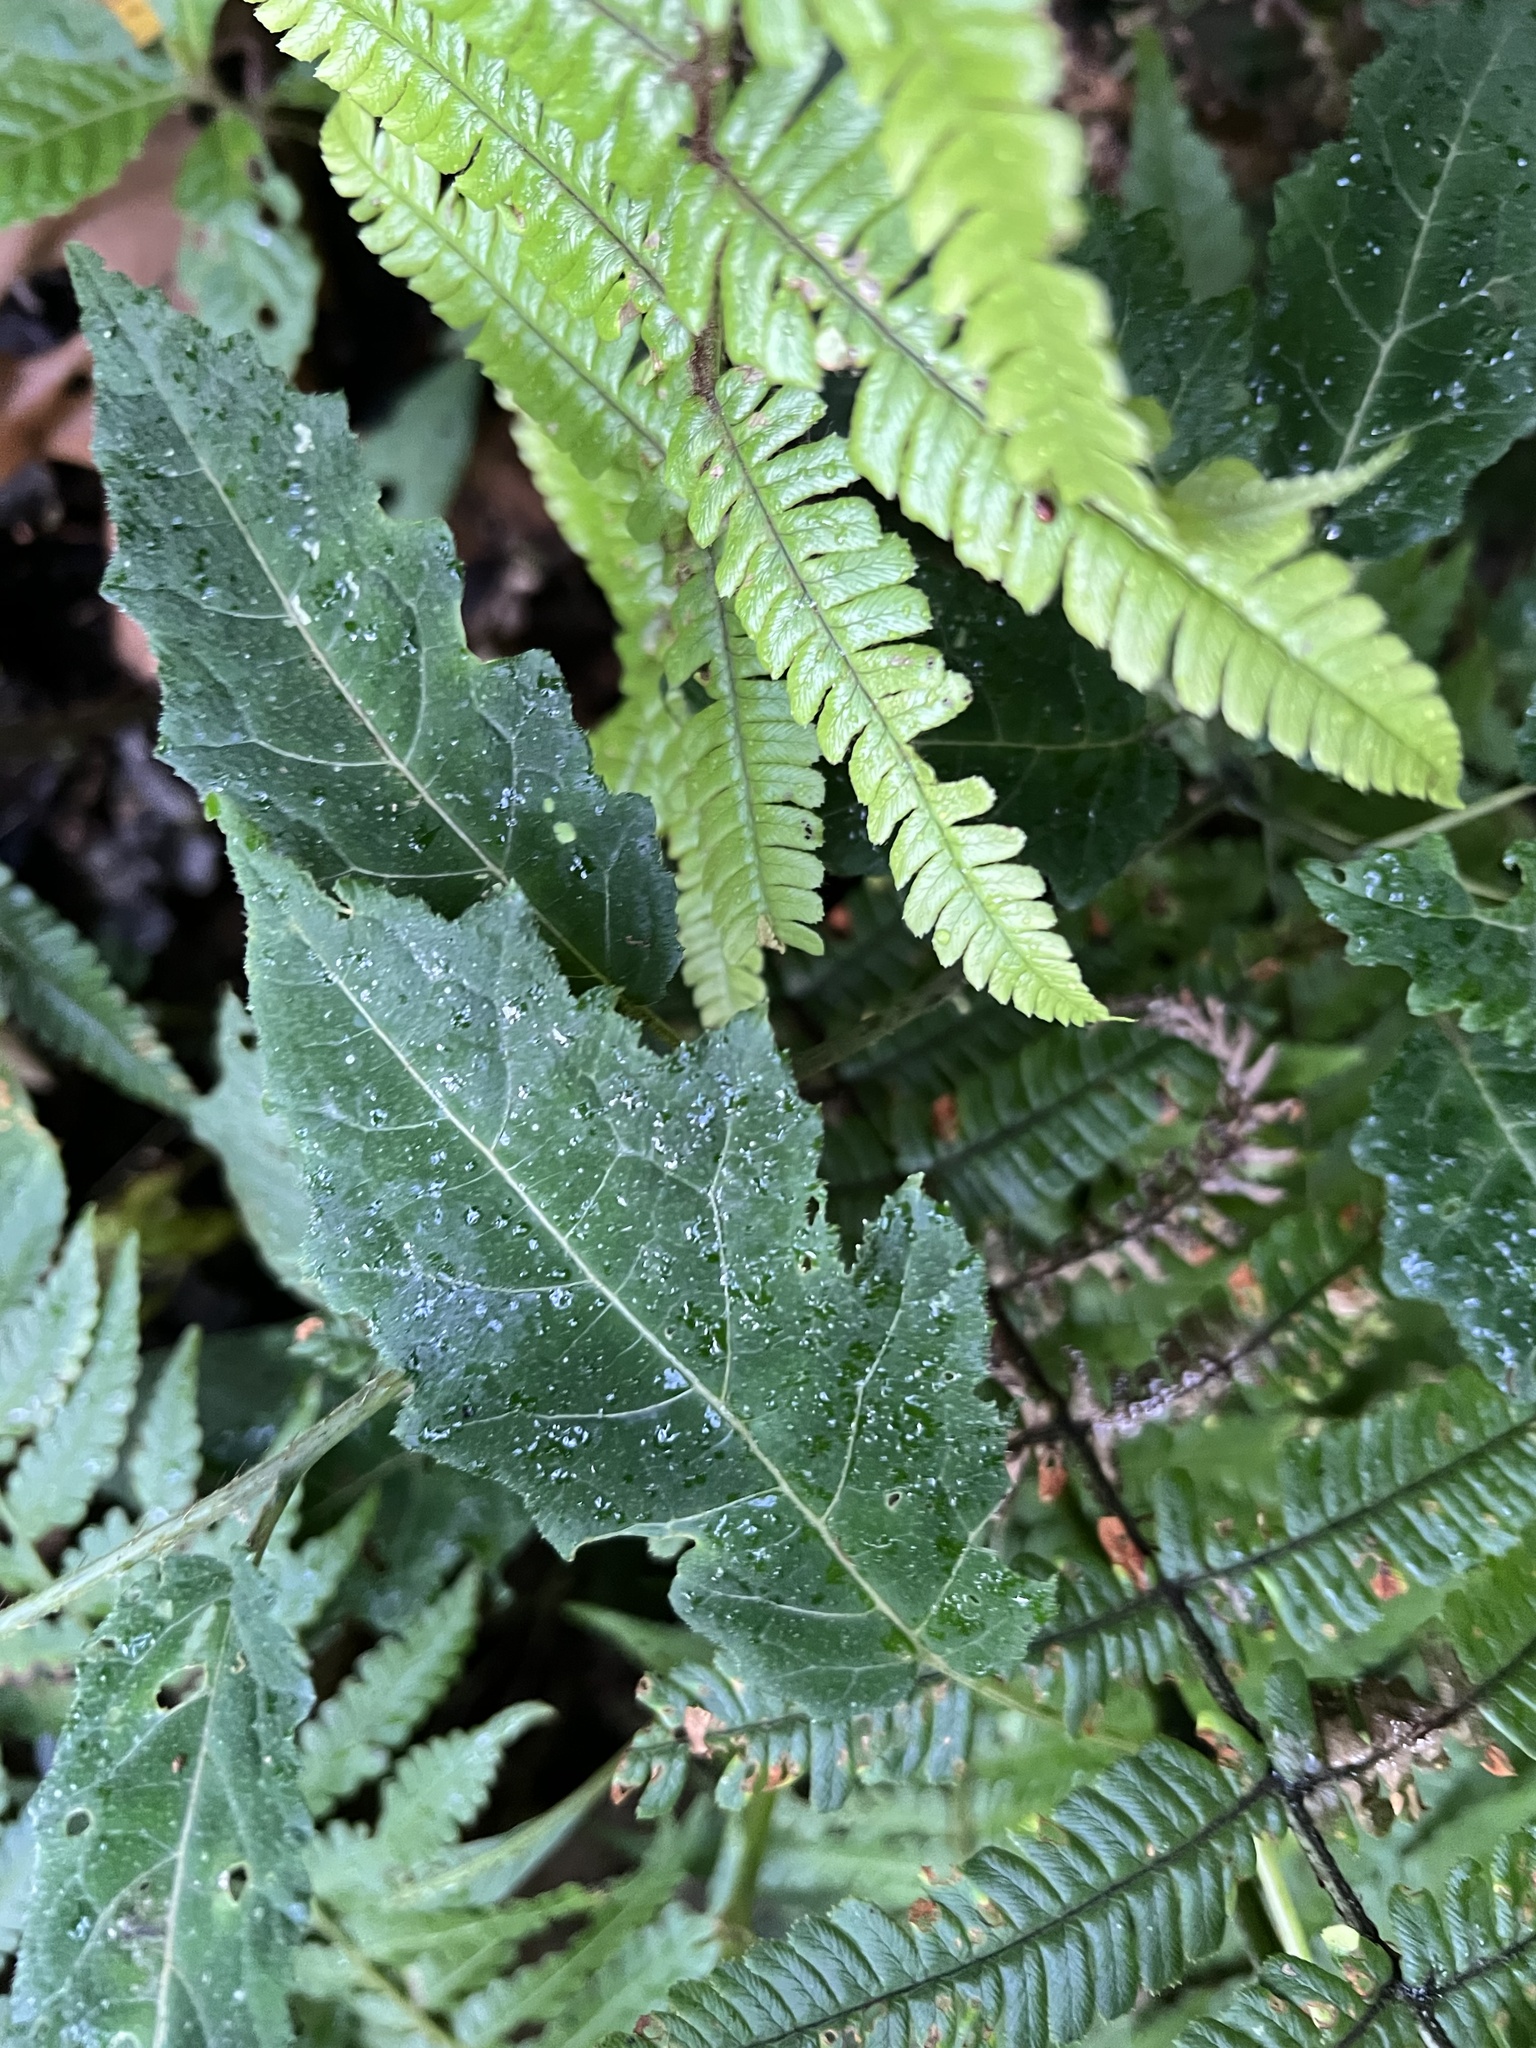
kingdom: Plantae
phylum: Tracheophyta
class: Magnoliopsida
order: Cornales
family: Loasaceae
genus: Nasa
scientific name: Nasa campaniflora
